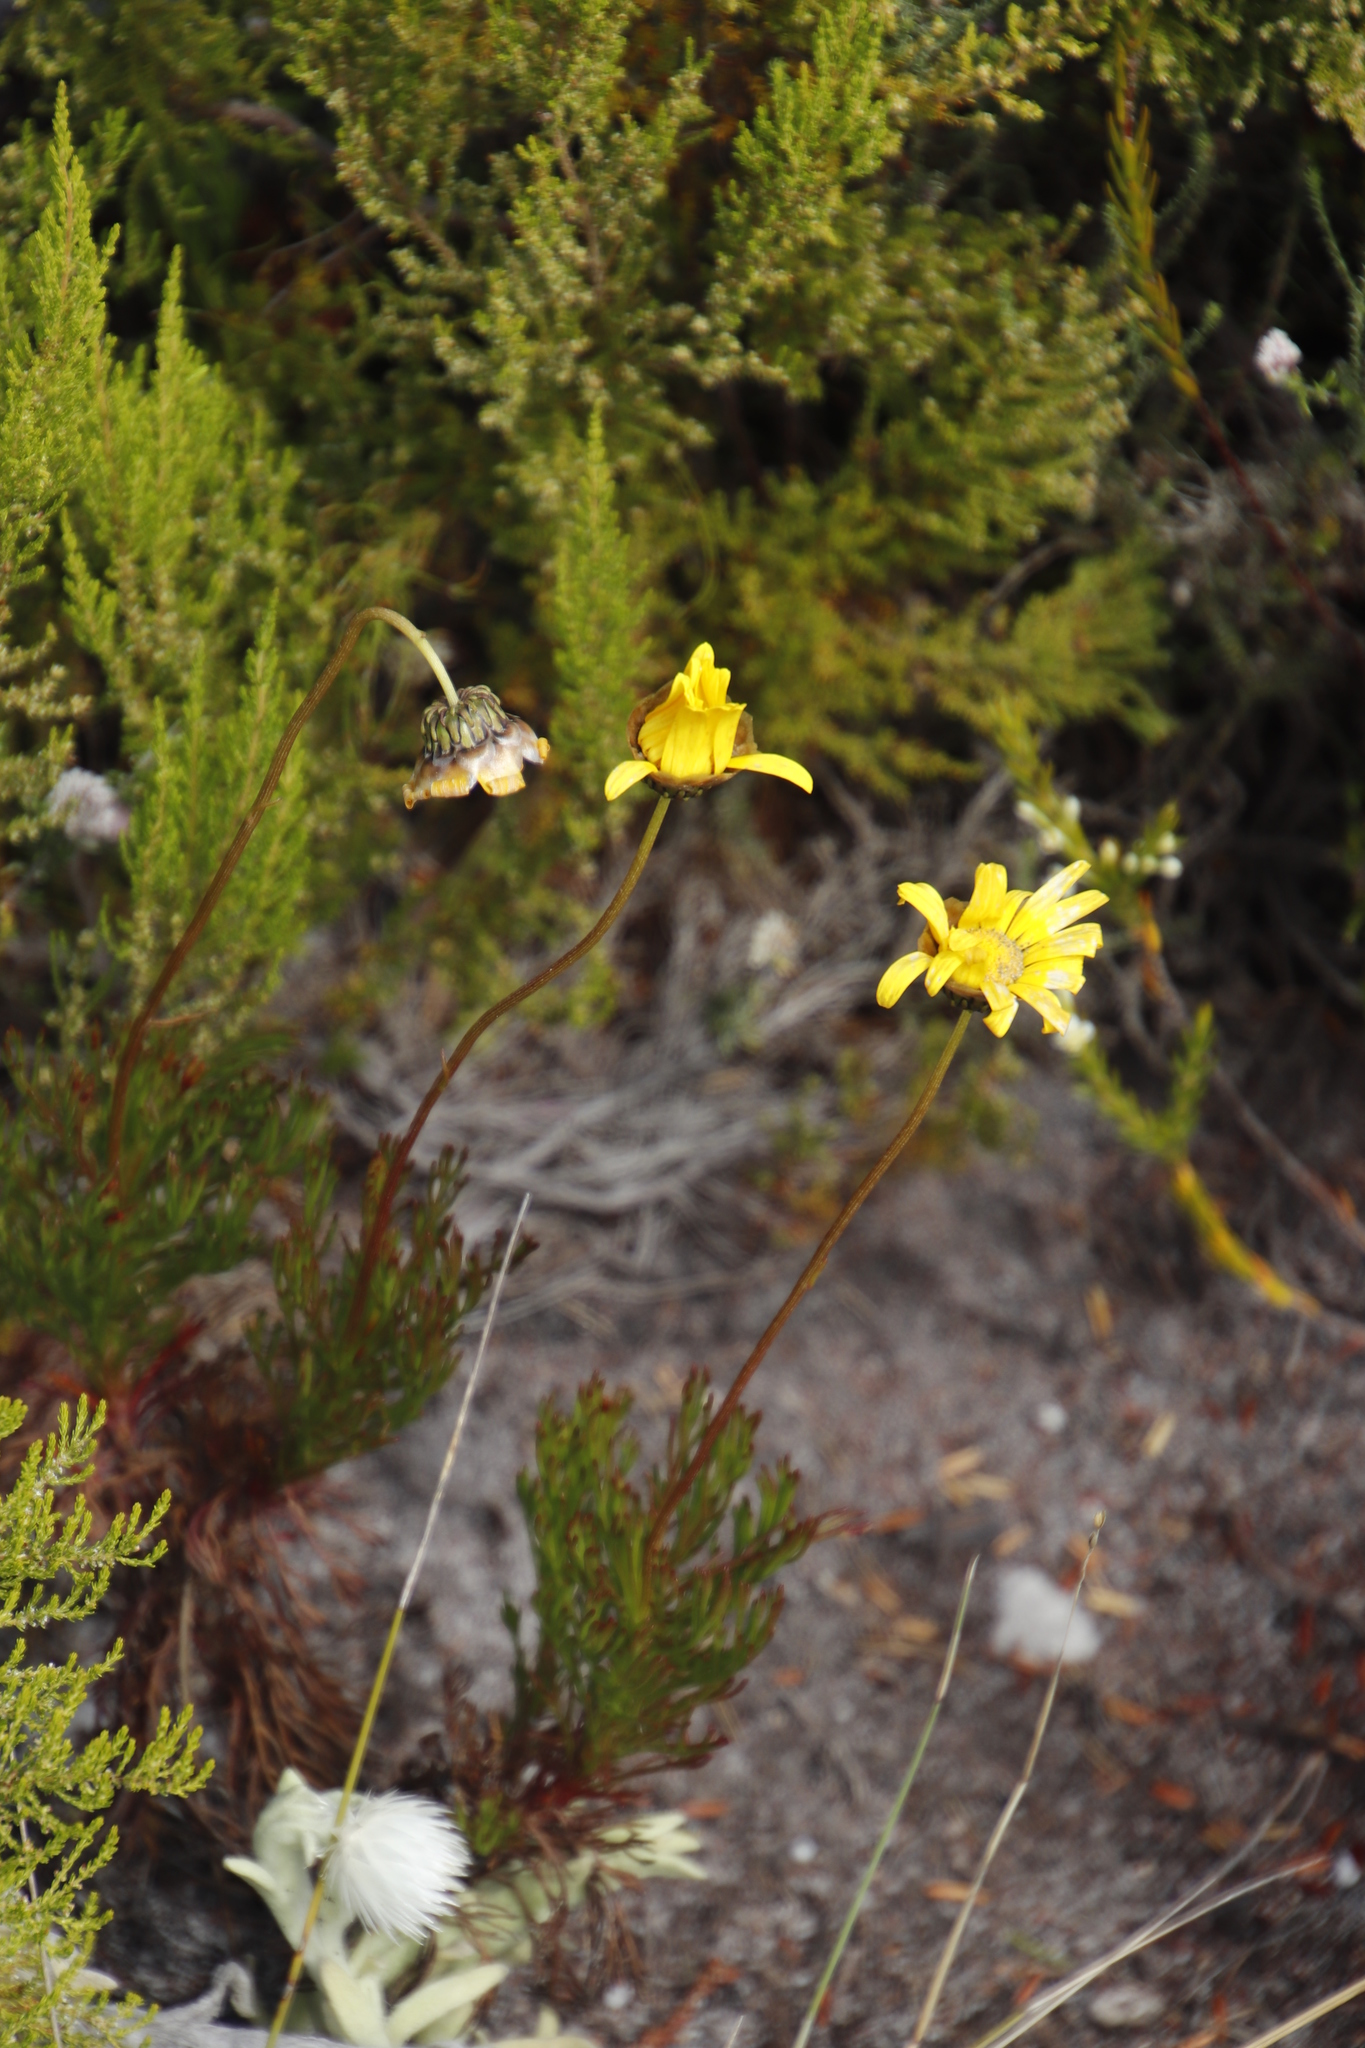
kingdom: Plantae
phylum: Tracheophyta
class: Magnoliopsida
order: Asterales
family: Asteraceae
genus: Euryops
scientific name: Euryops abrotanifolius
